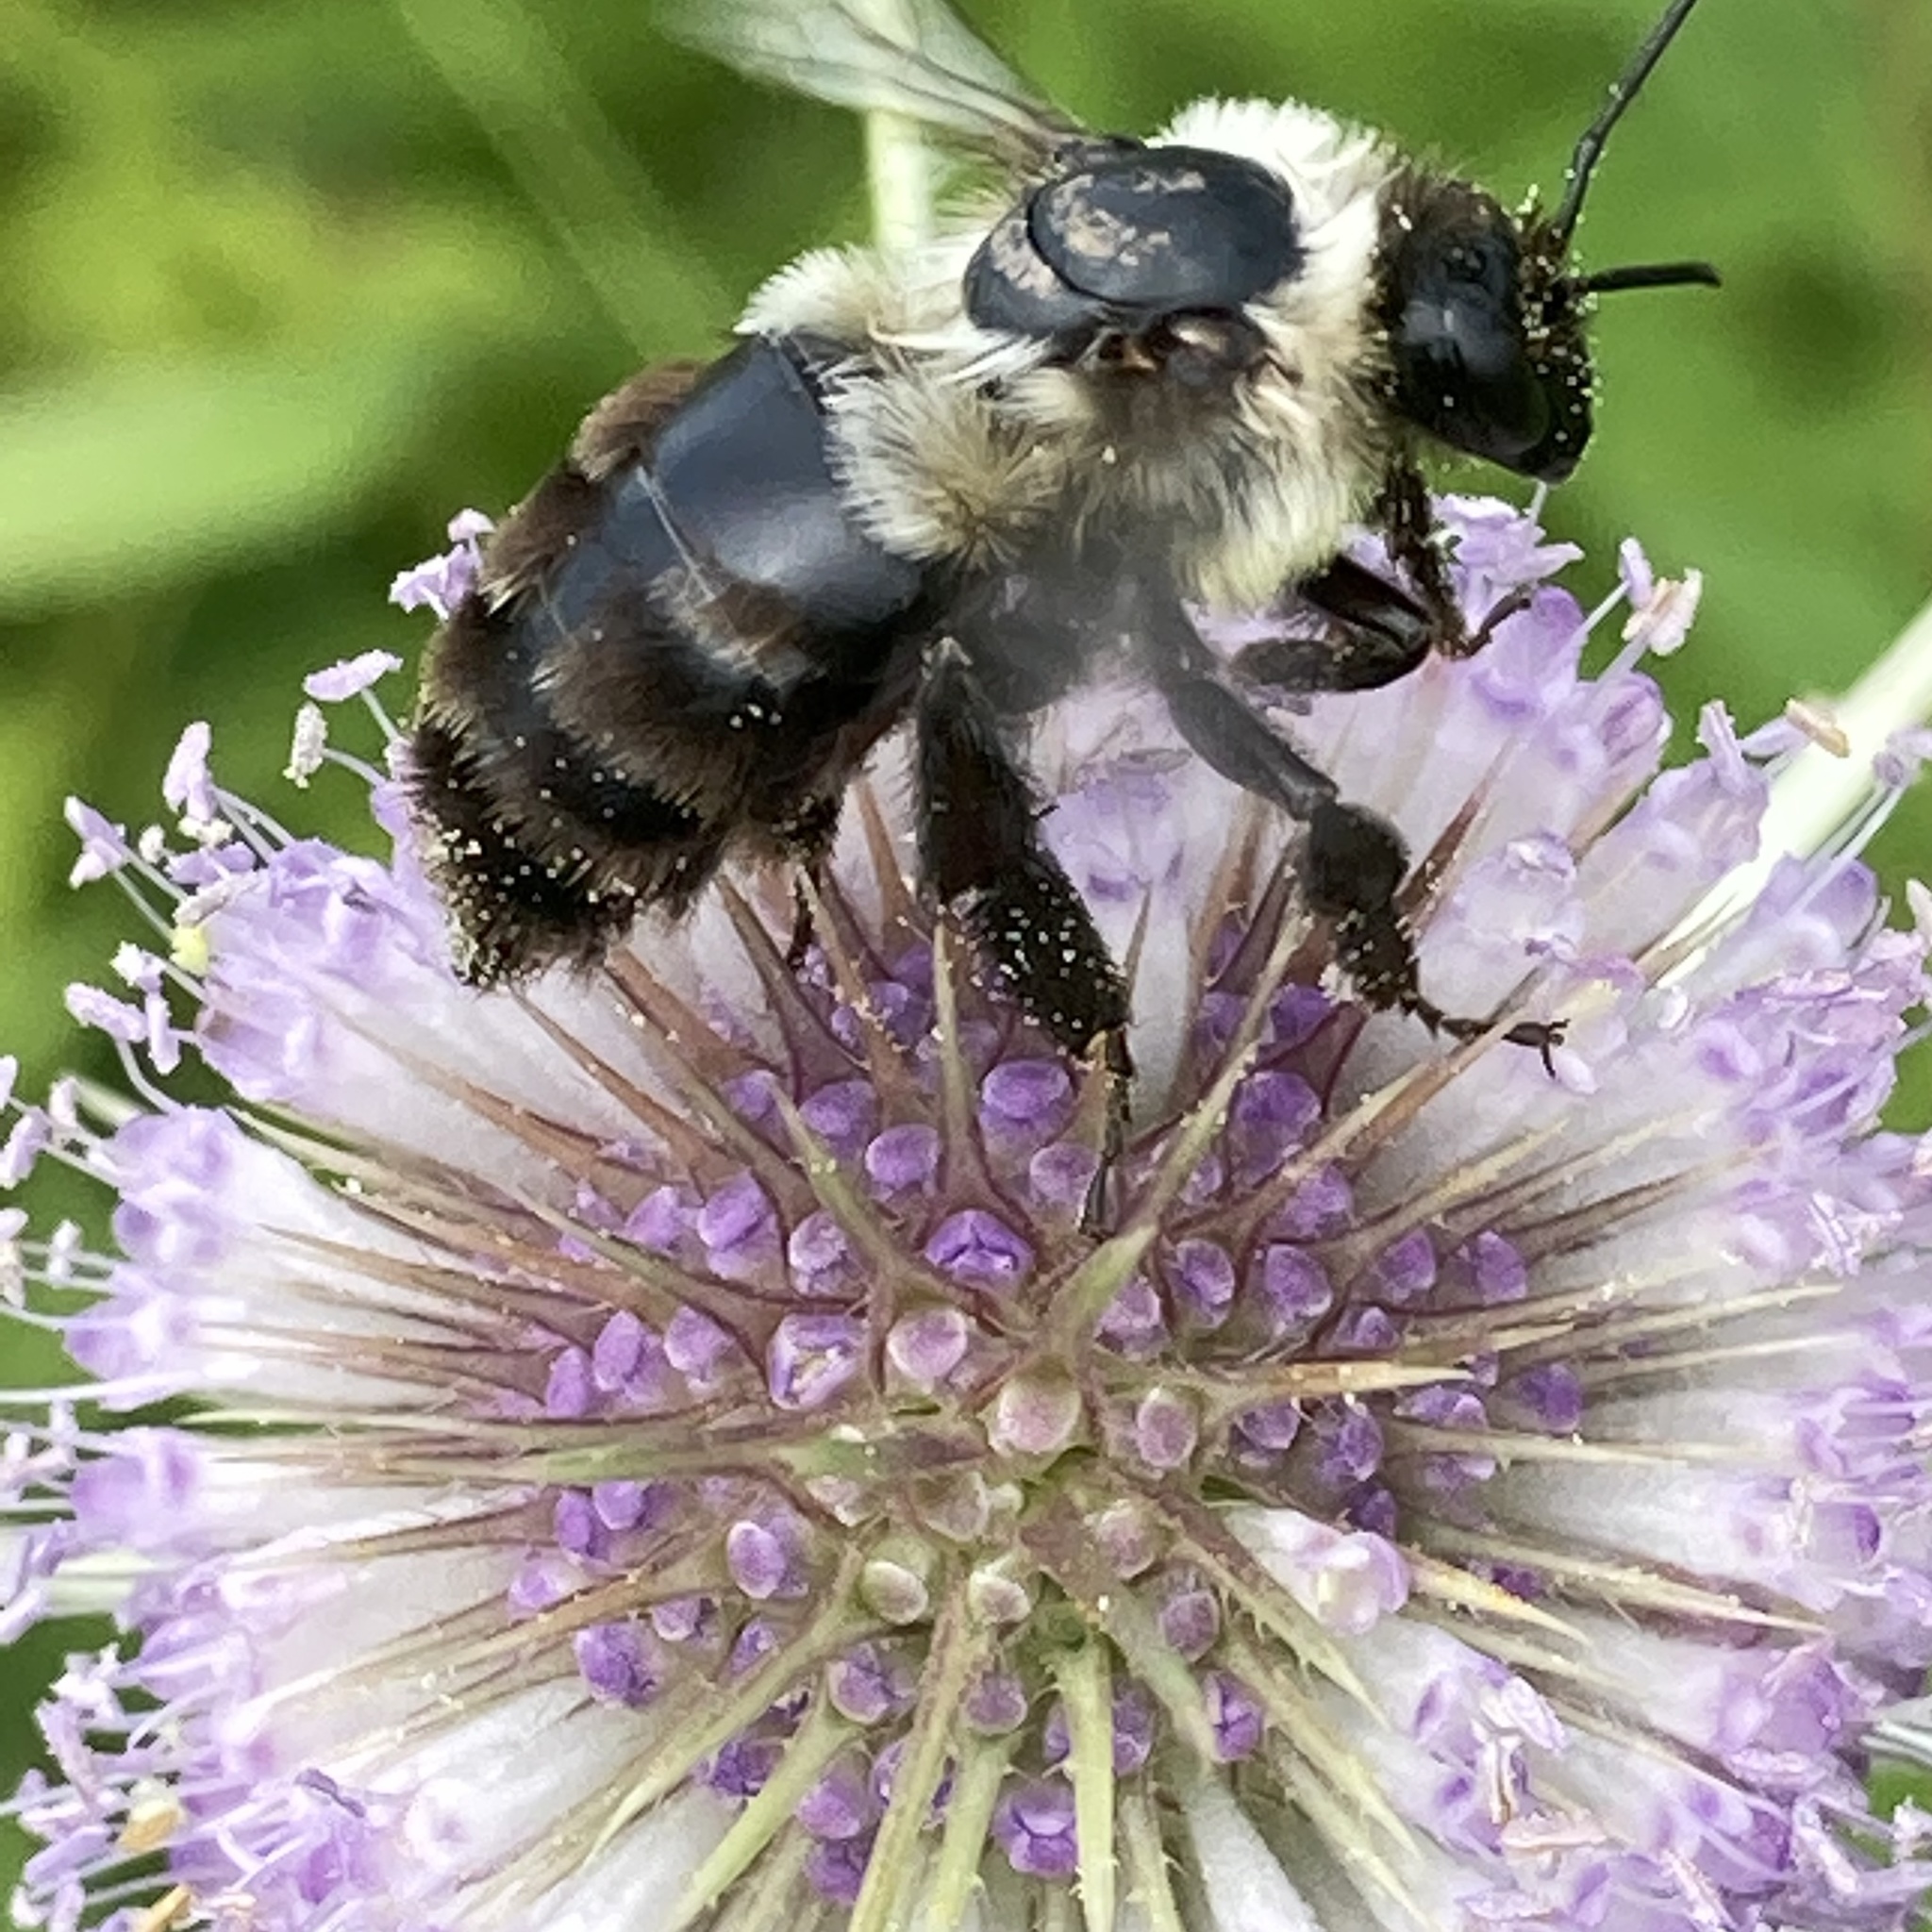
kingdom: Animalia
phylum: Arthropoda
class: Insecta
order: Hymenoptera
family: Apidae
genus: Bombus
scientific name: Bombus impatiens
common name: Common eastern bumble bee
